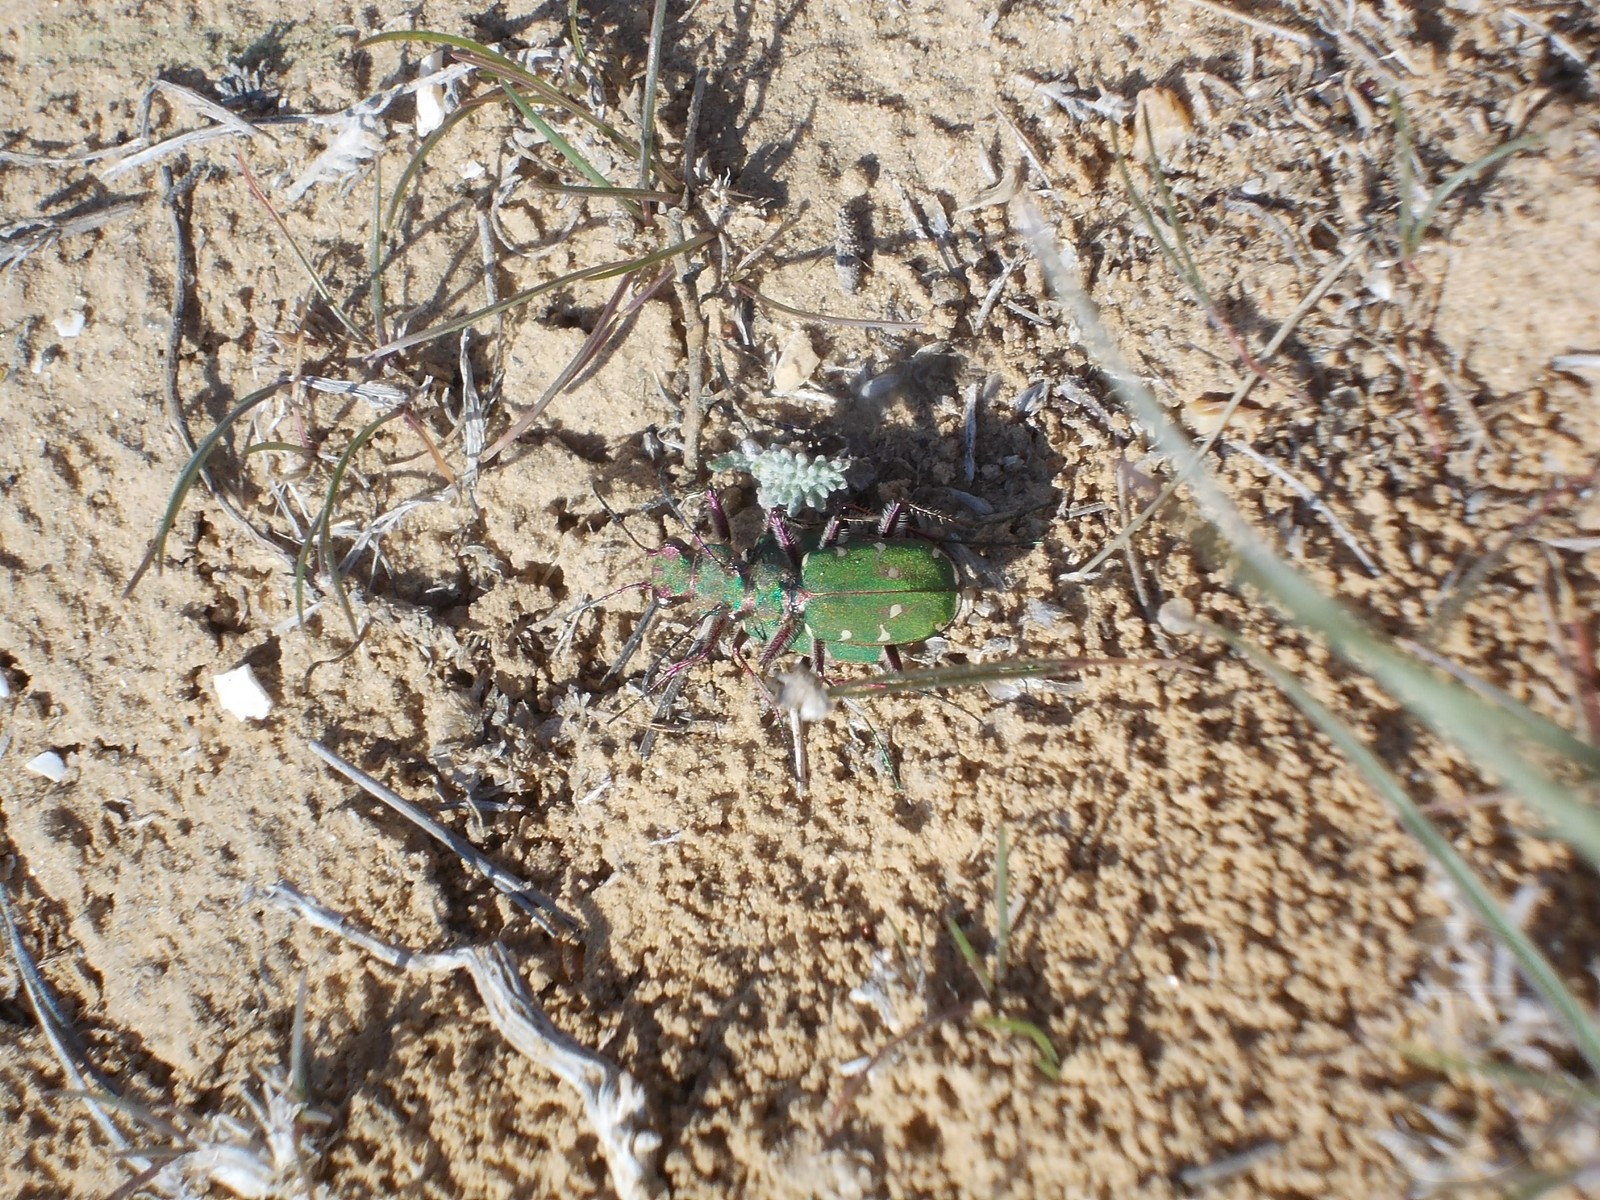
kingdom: Animalia
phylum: Arthropoda
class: Insecta
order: Coleoptera
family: Carabidae
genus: Cicindela
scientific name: Cicindela campestris
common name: Common tiger beetle
